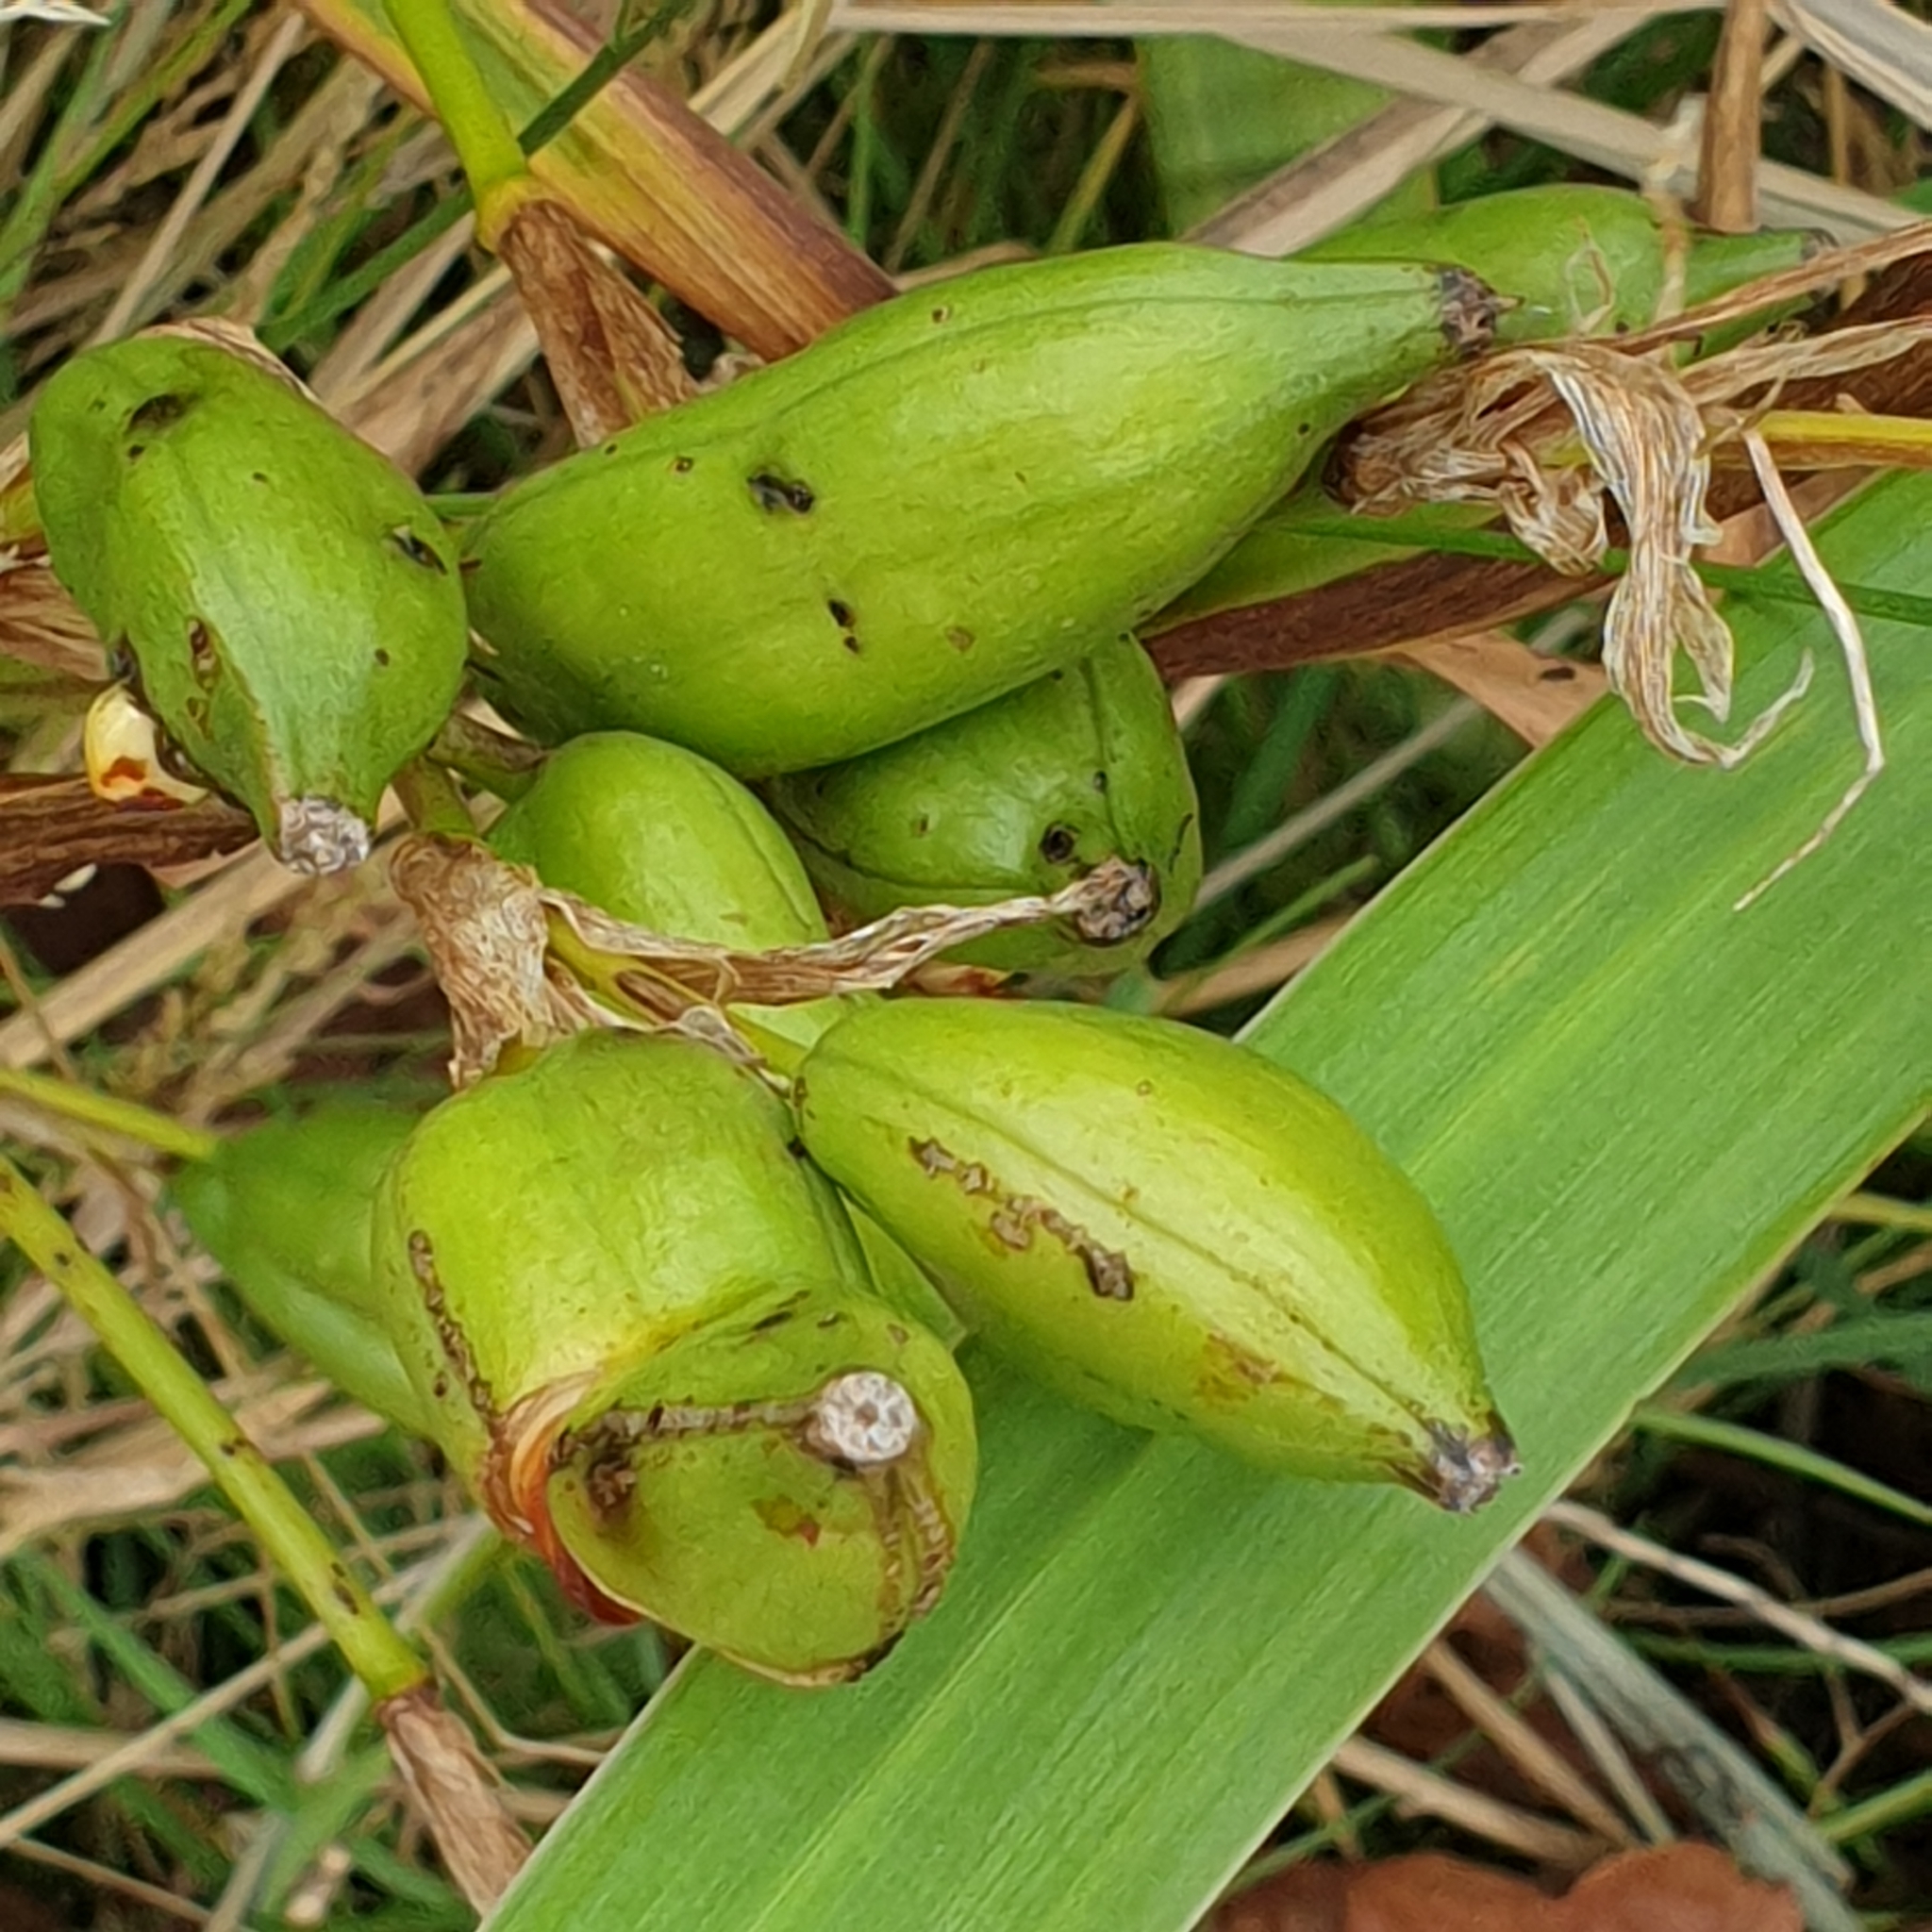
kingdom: Plantae
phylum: Tracheophyta
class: Liliopsida
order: Asparagales
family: Iridaceae
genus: Iris
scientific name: Iris pseudacorus
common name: Yellow flag
